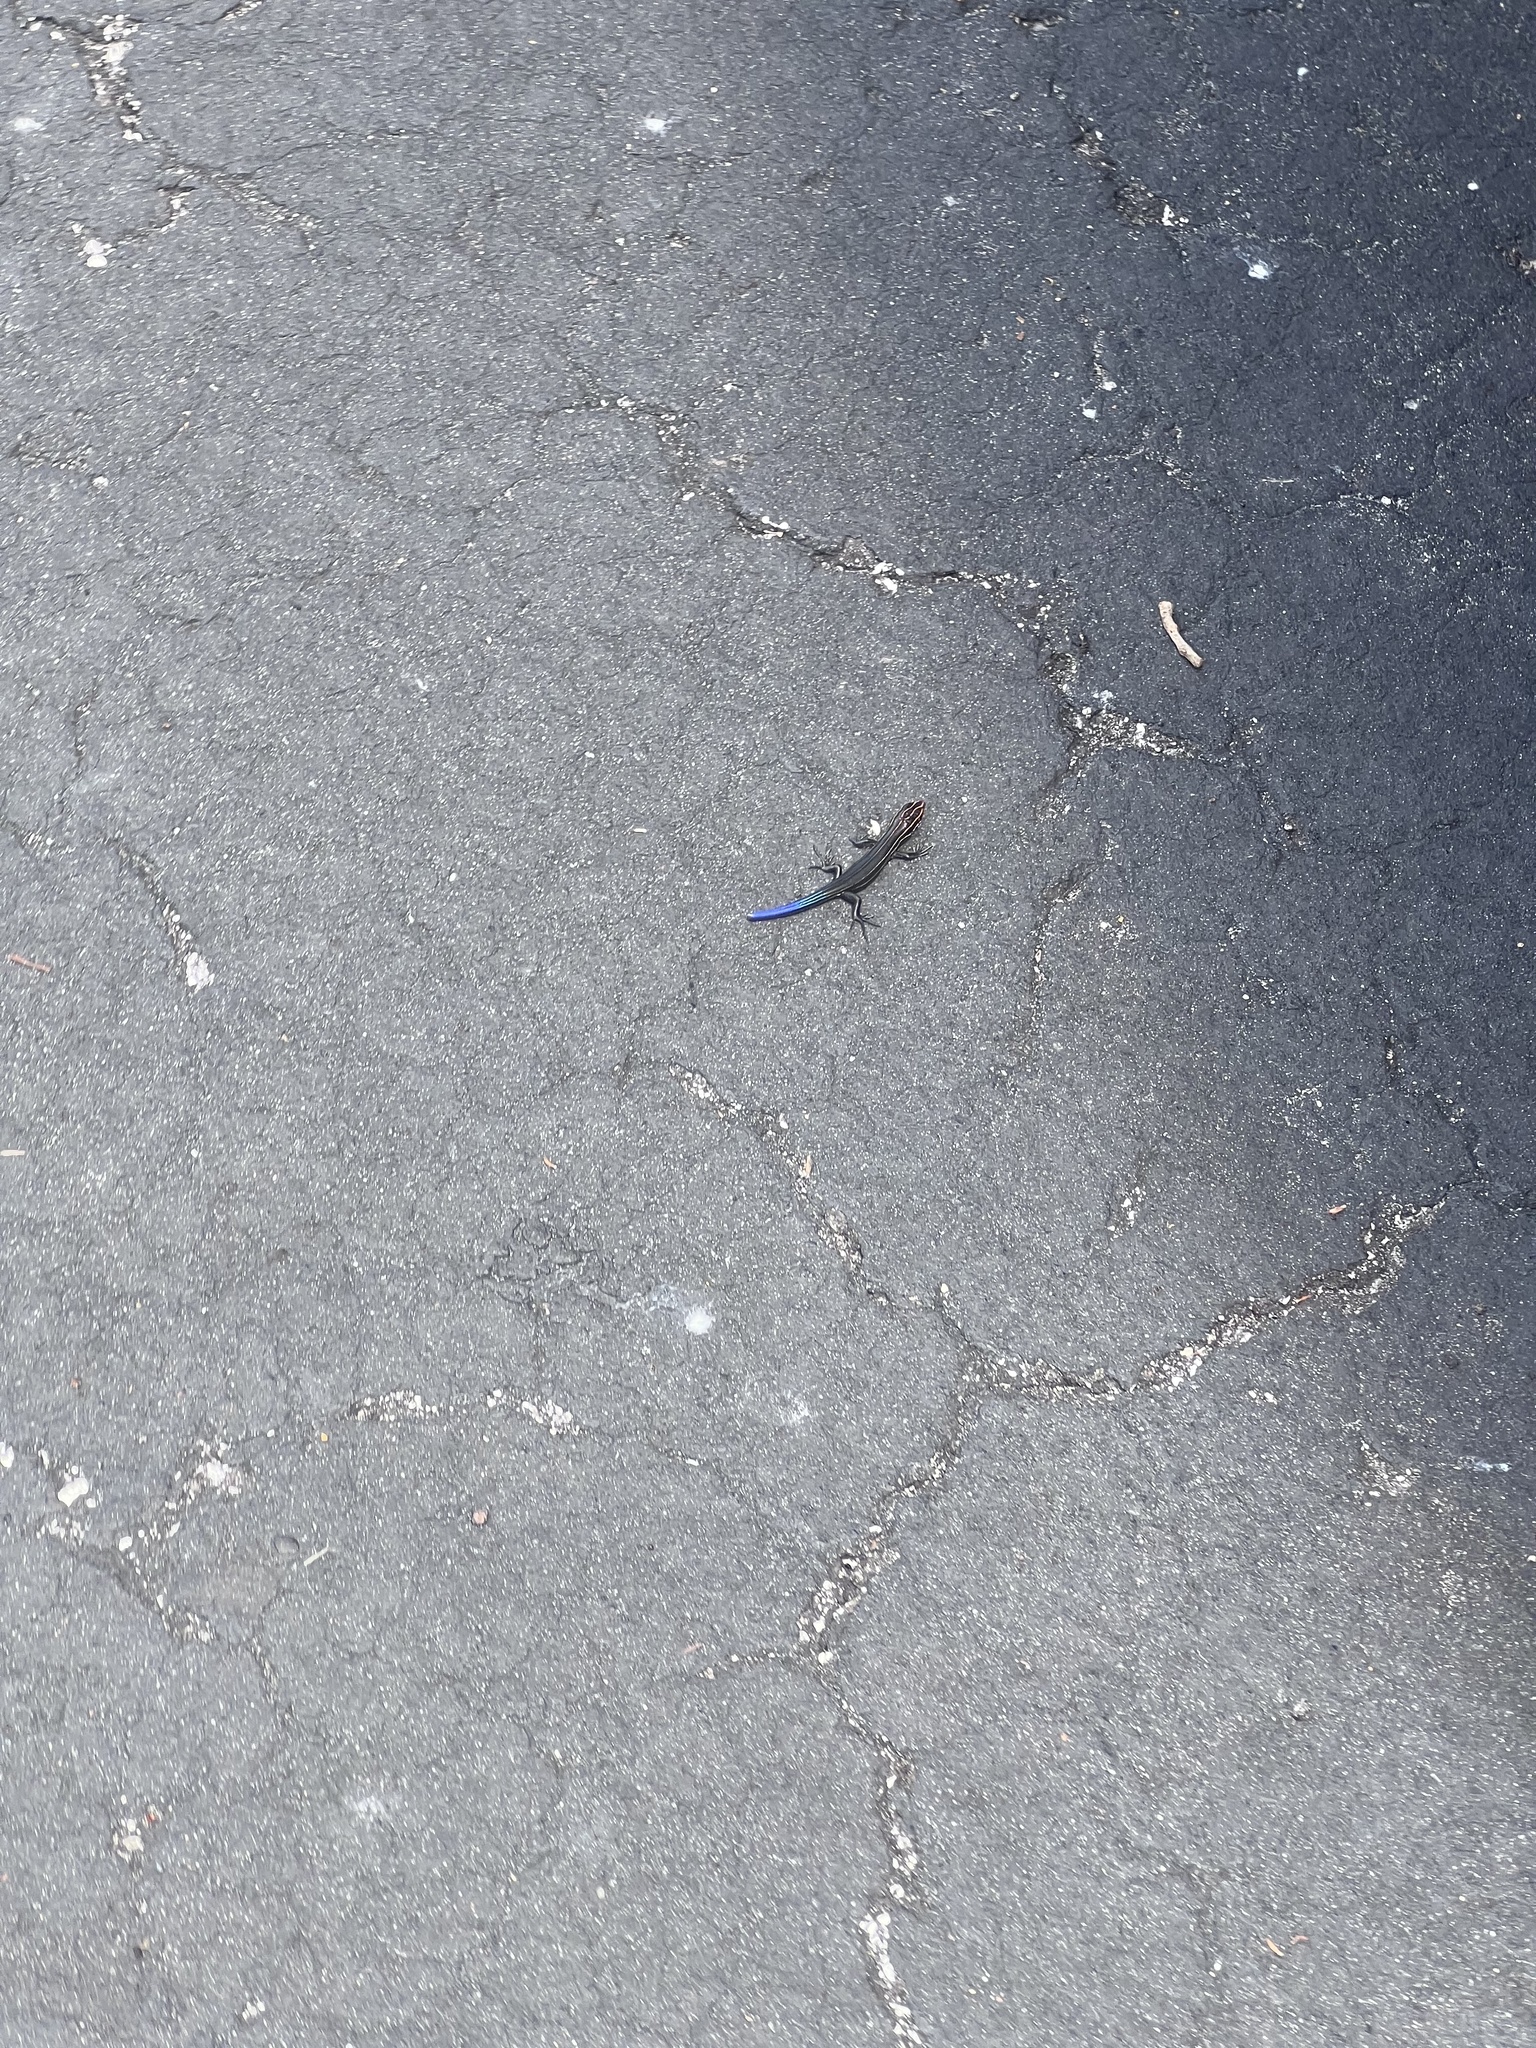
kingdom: Animalia
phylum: Chordata
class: Squamata
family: Scincidae
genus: Plestiodon
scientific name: Plestiodon inexpectatus
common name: Southeastern five-lined skink
